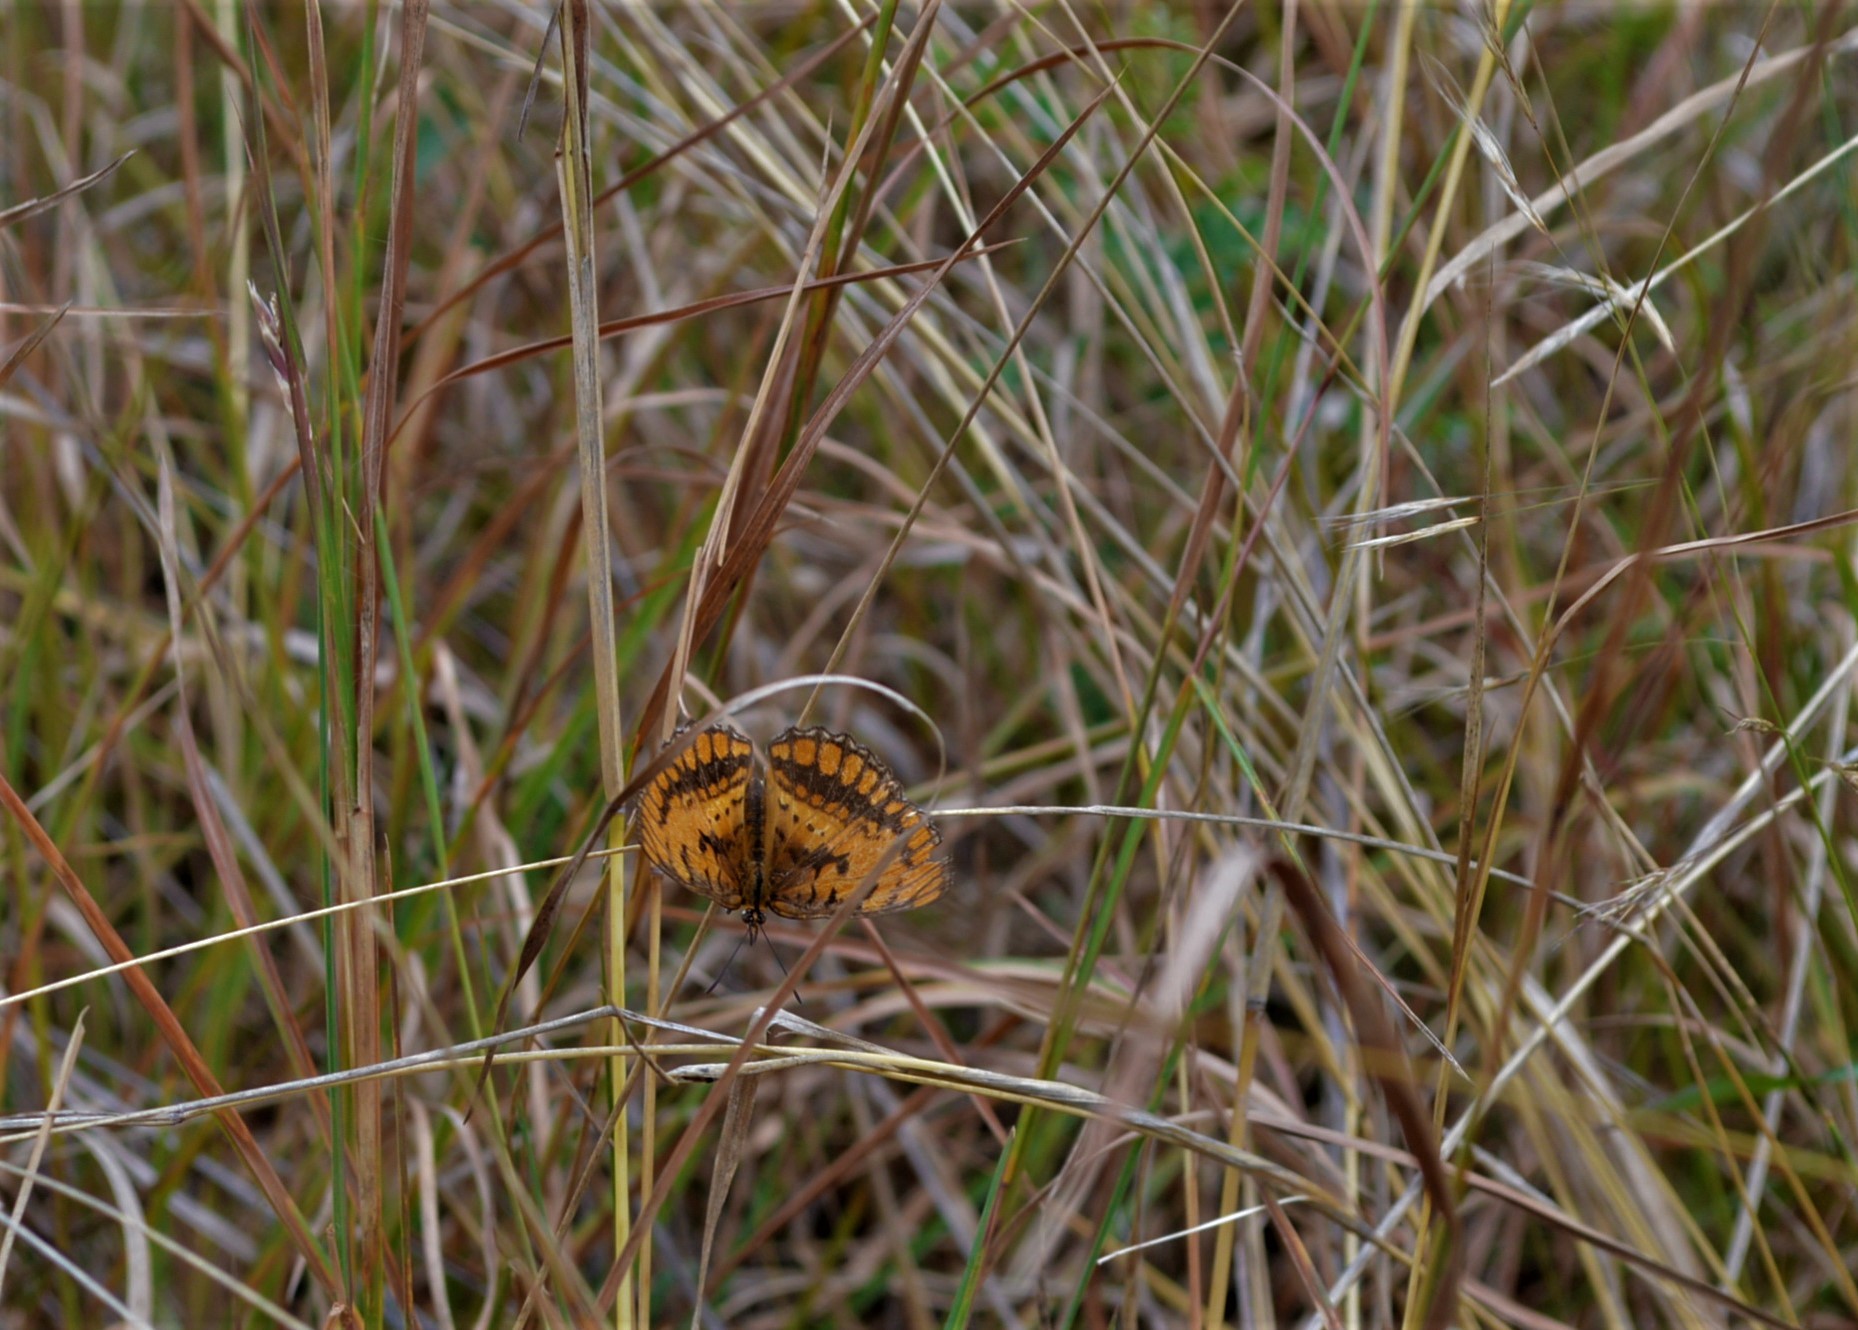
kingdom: Animalia
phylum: Arthropoda
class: Insecta
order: Lepidoptera
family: Nymphalidae
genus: Byblia
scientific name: Byblia ilithyia
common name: Spotted joker
